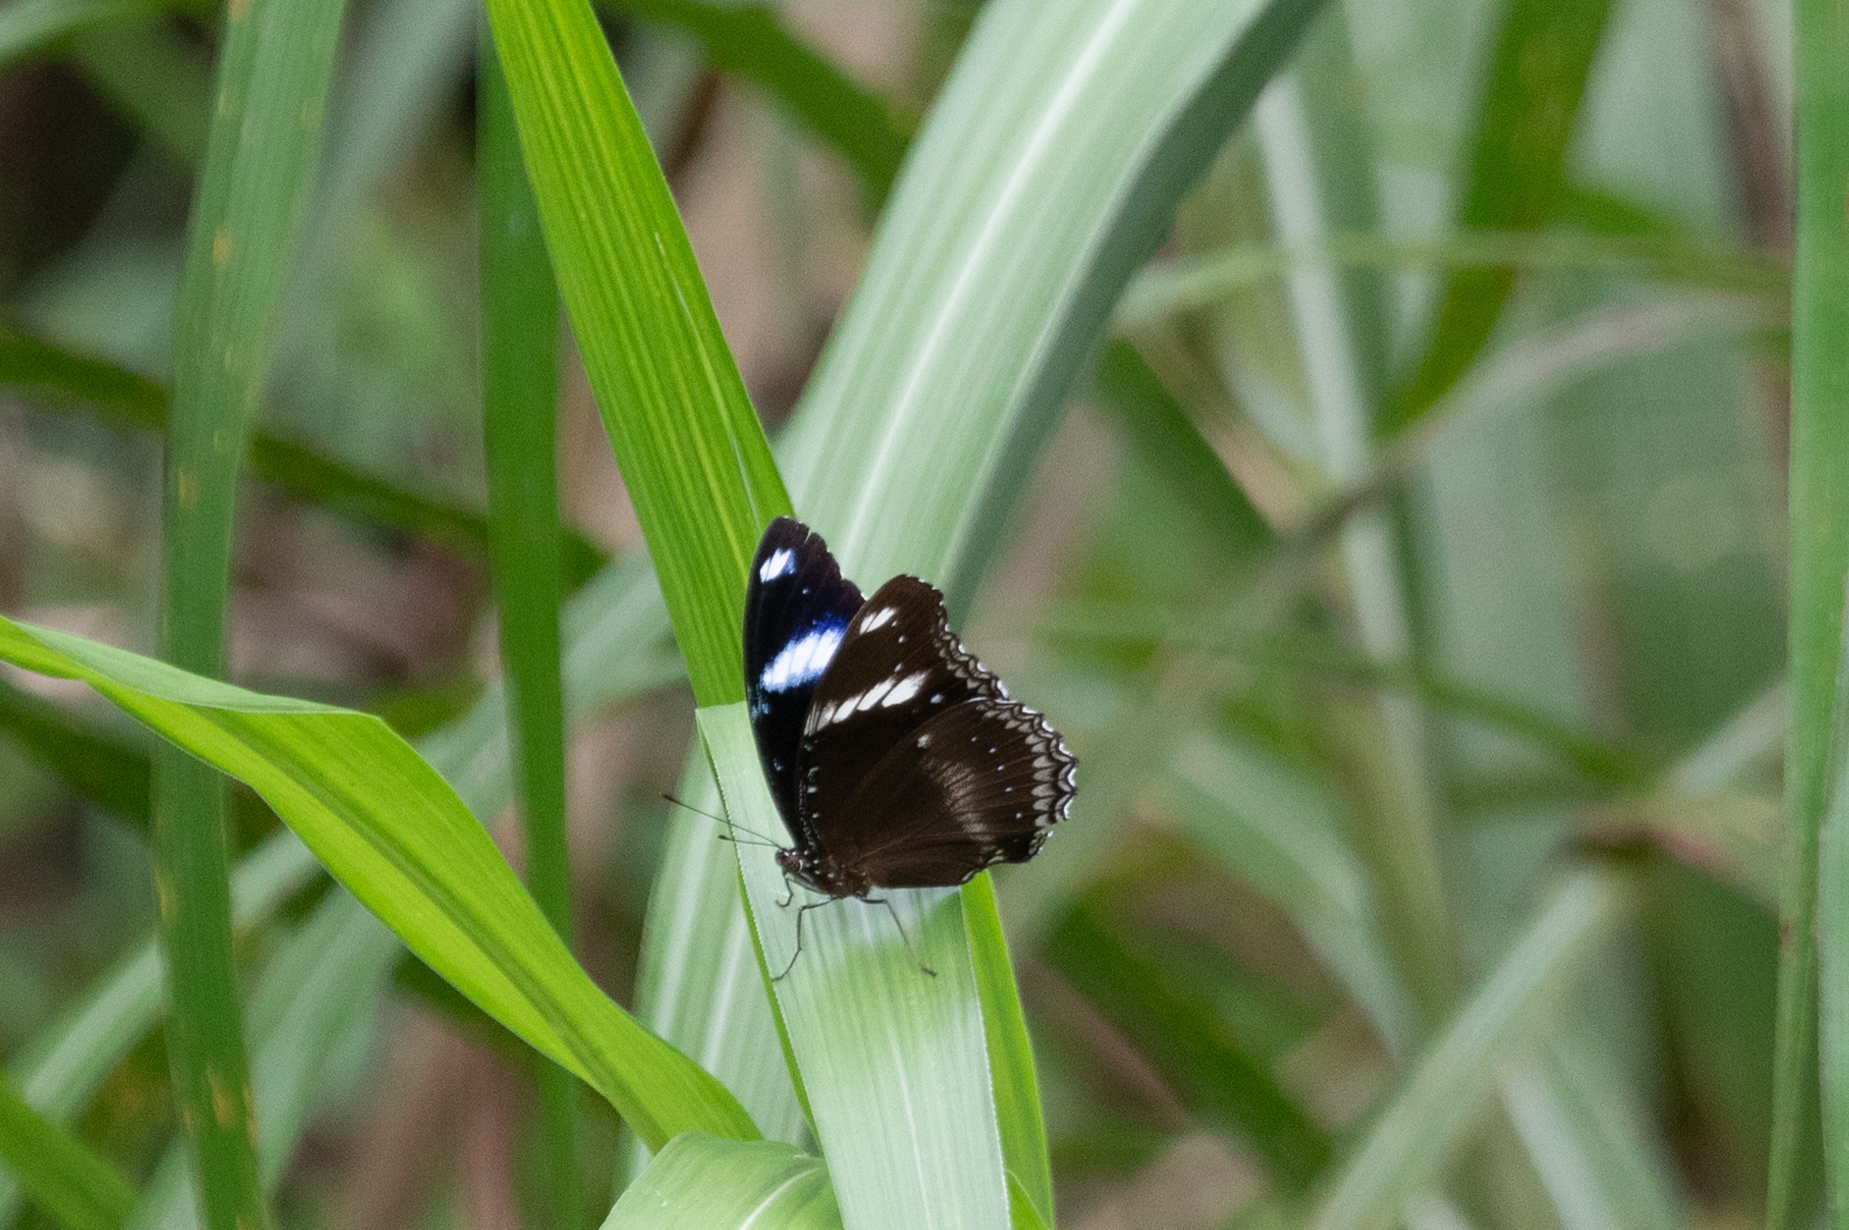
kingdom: Animalia
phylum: Arthropoda
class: Insecta
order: Lepidoptera
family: Nymphalidae
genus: Hypolimnas
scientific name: Hypolimnas bolina
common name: Great eggfly
